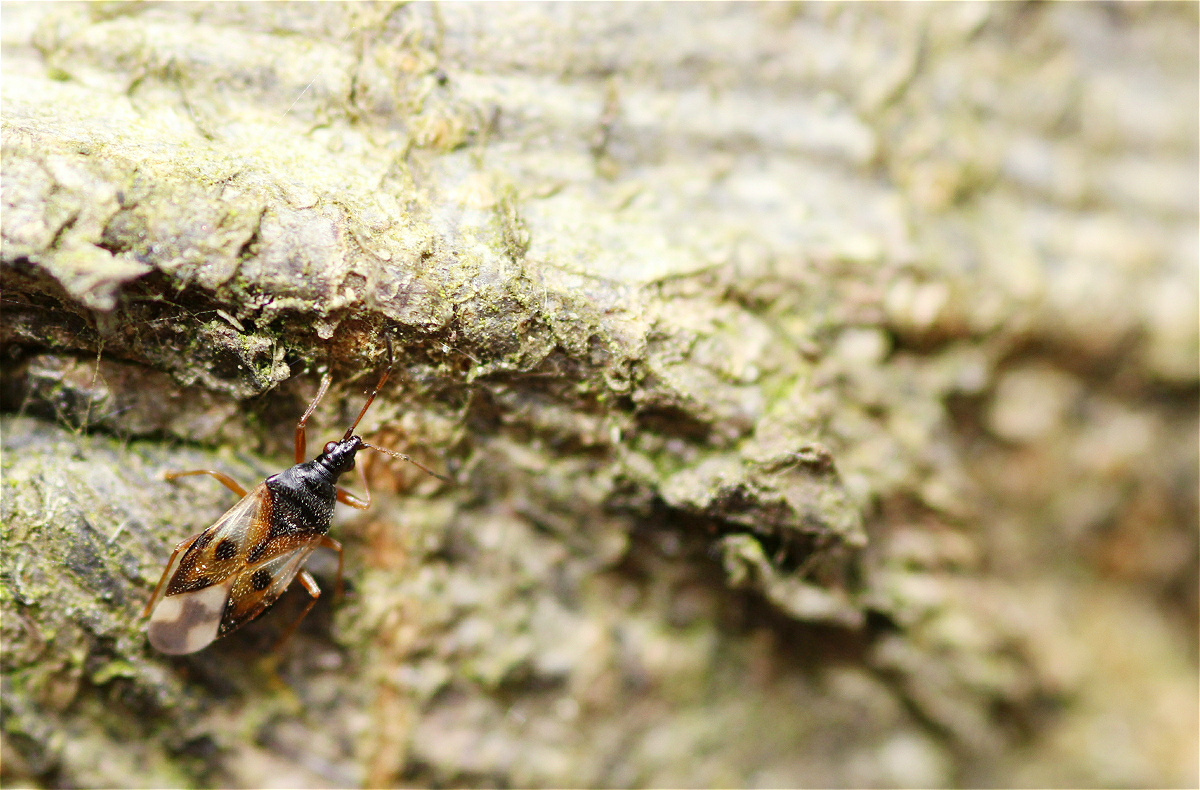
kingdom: Animalia
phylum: Arthropoda
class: Insecta
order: Hemiptera
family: Anthocoridae
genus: Anthocoris
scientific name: Anthocoris nemorum
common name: Minute pirate bug
